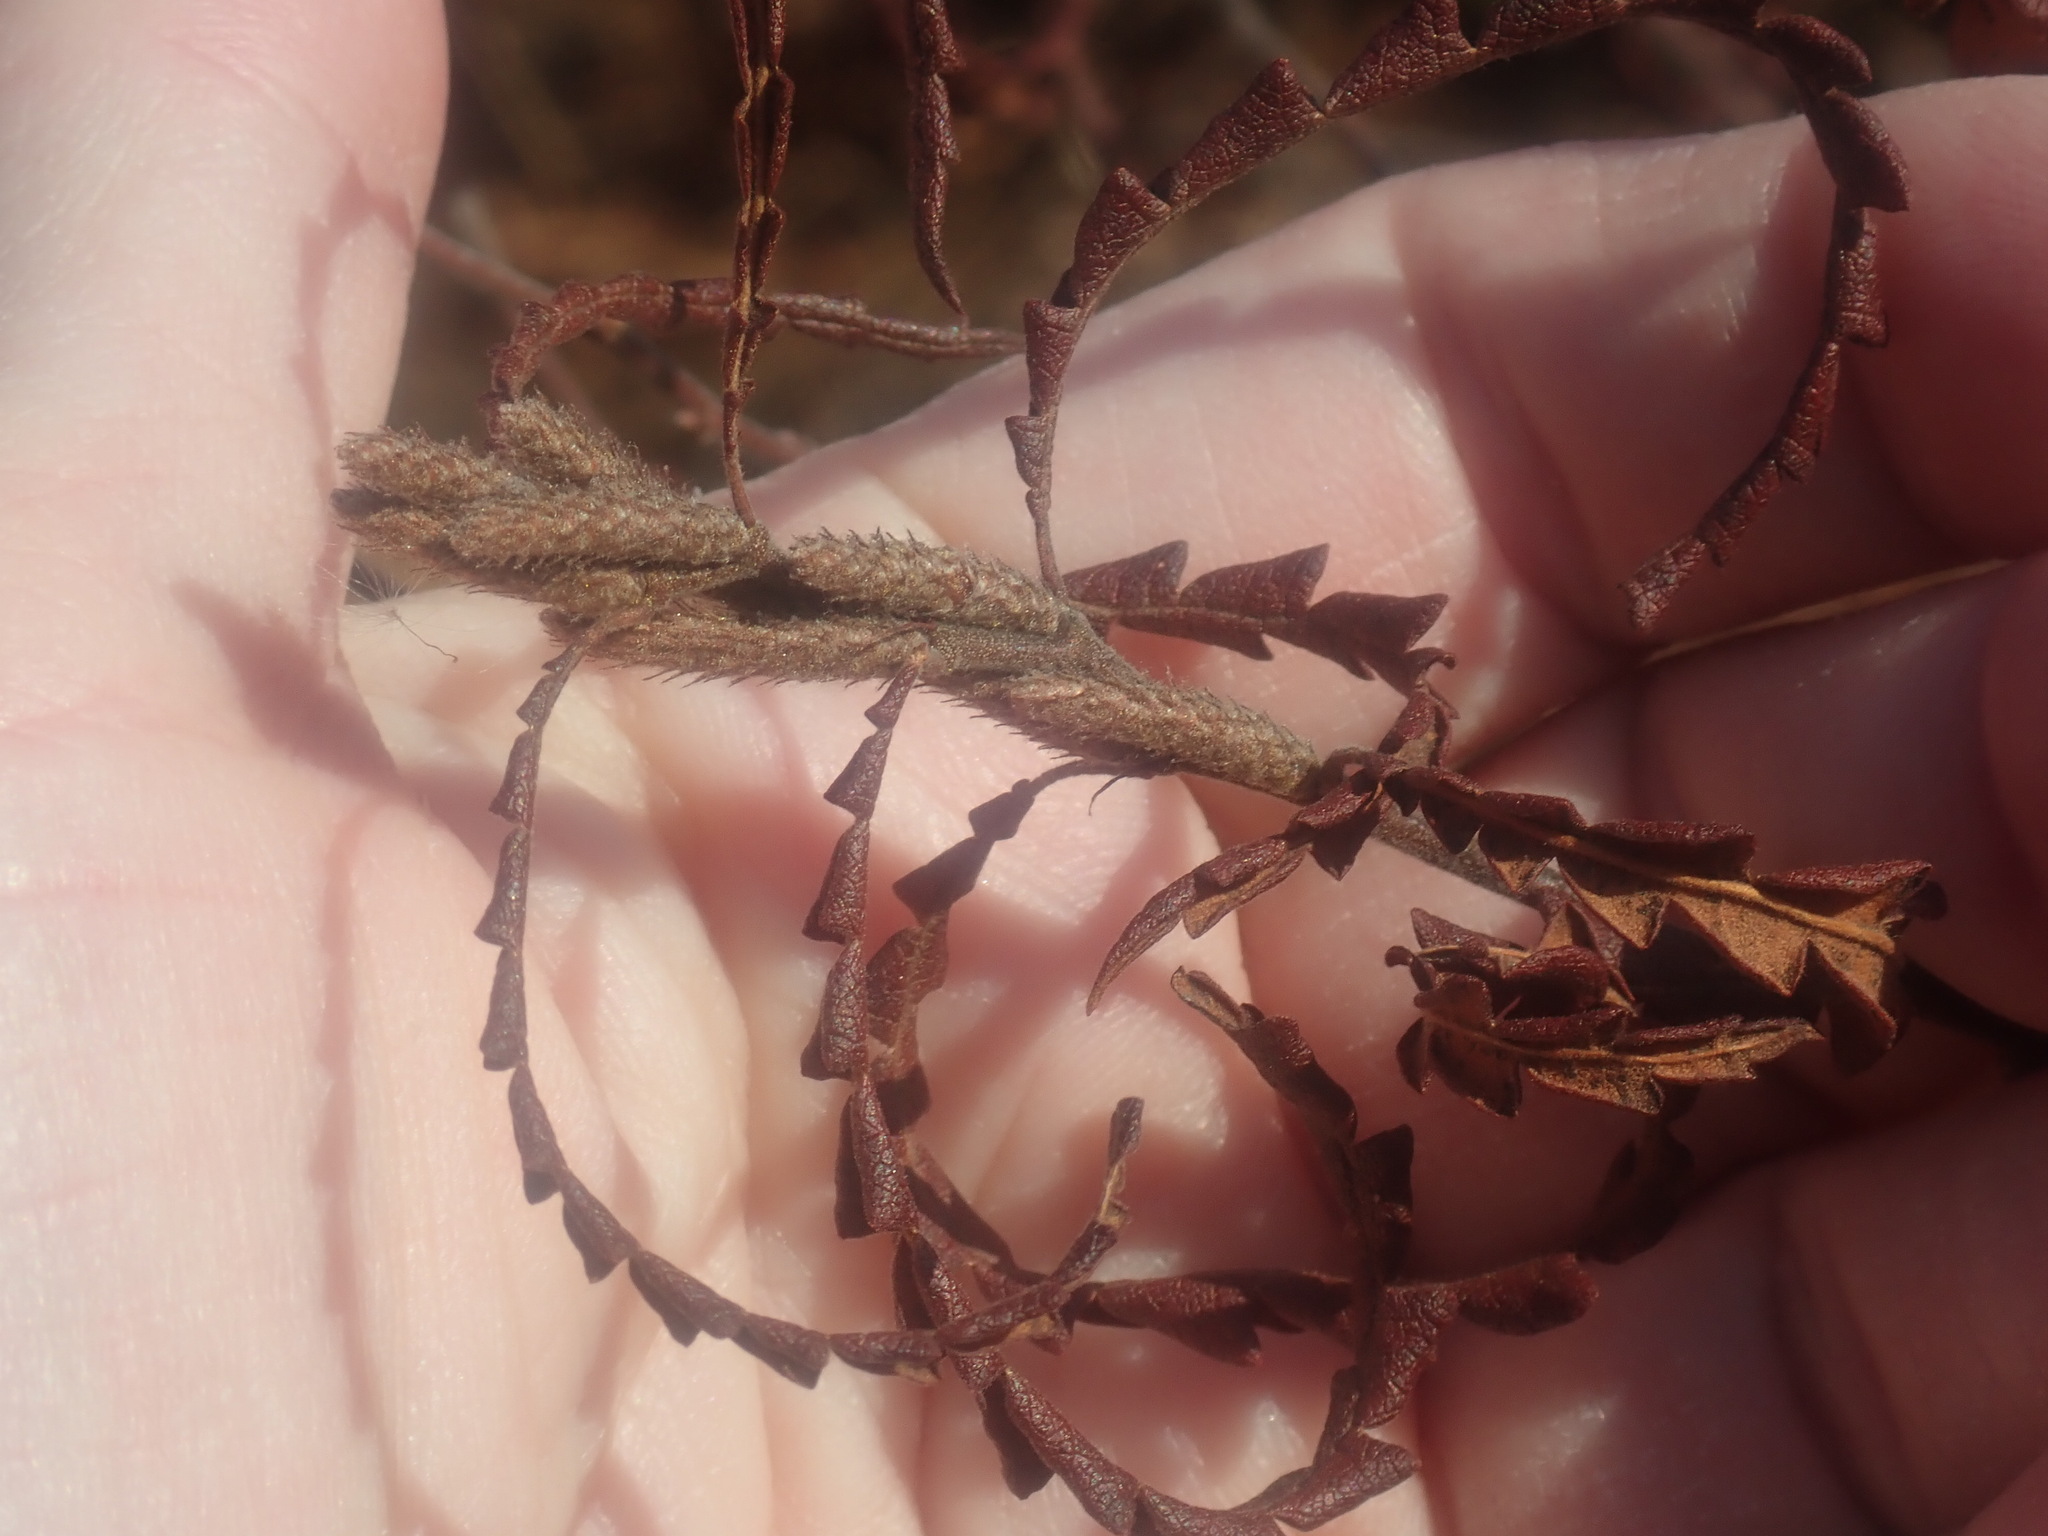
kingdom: Plantae
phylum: Tracheophyta
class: Magnoliopsida
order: Fagales
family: Myricaceae
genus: Comptonia
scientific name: Comptonia peregrina
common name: Sweet-fern
